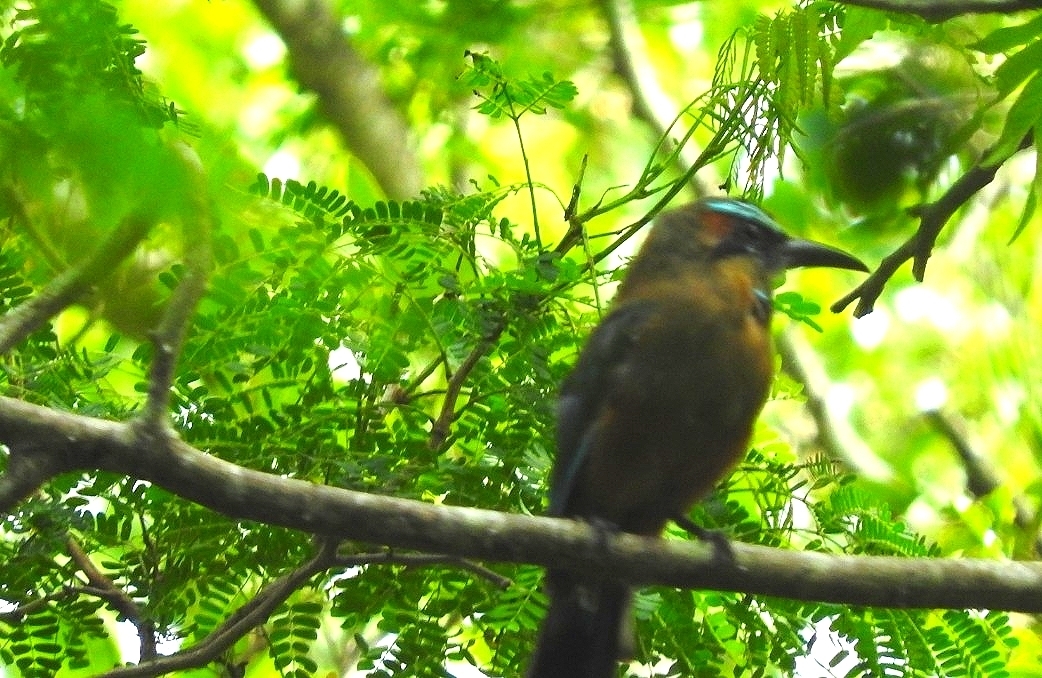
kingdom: Animalia
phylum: Chordata
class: Aves
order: Coraciiformes
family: Momotidae
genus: Eumomota
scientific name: Eumomota superciliosa
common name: Turquoise-browed motmot
